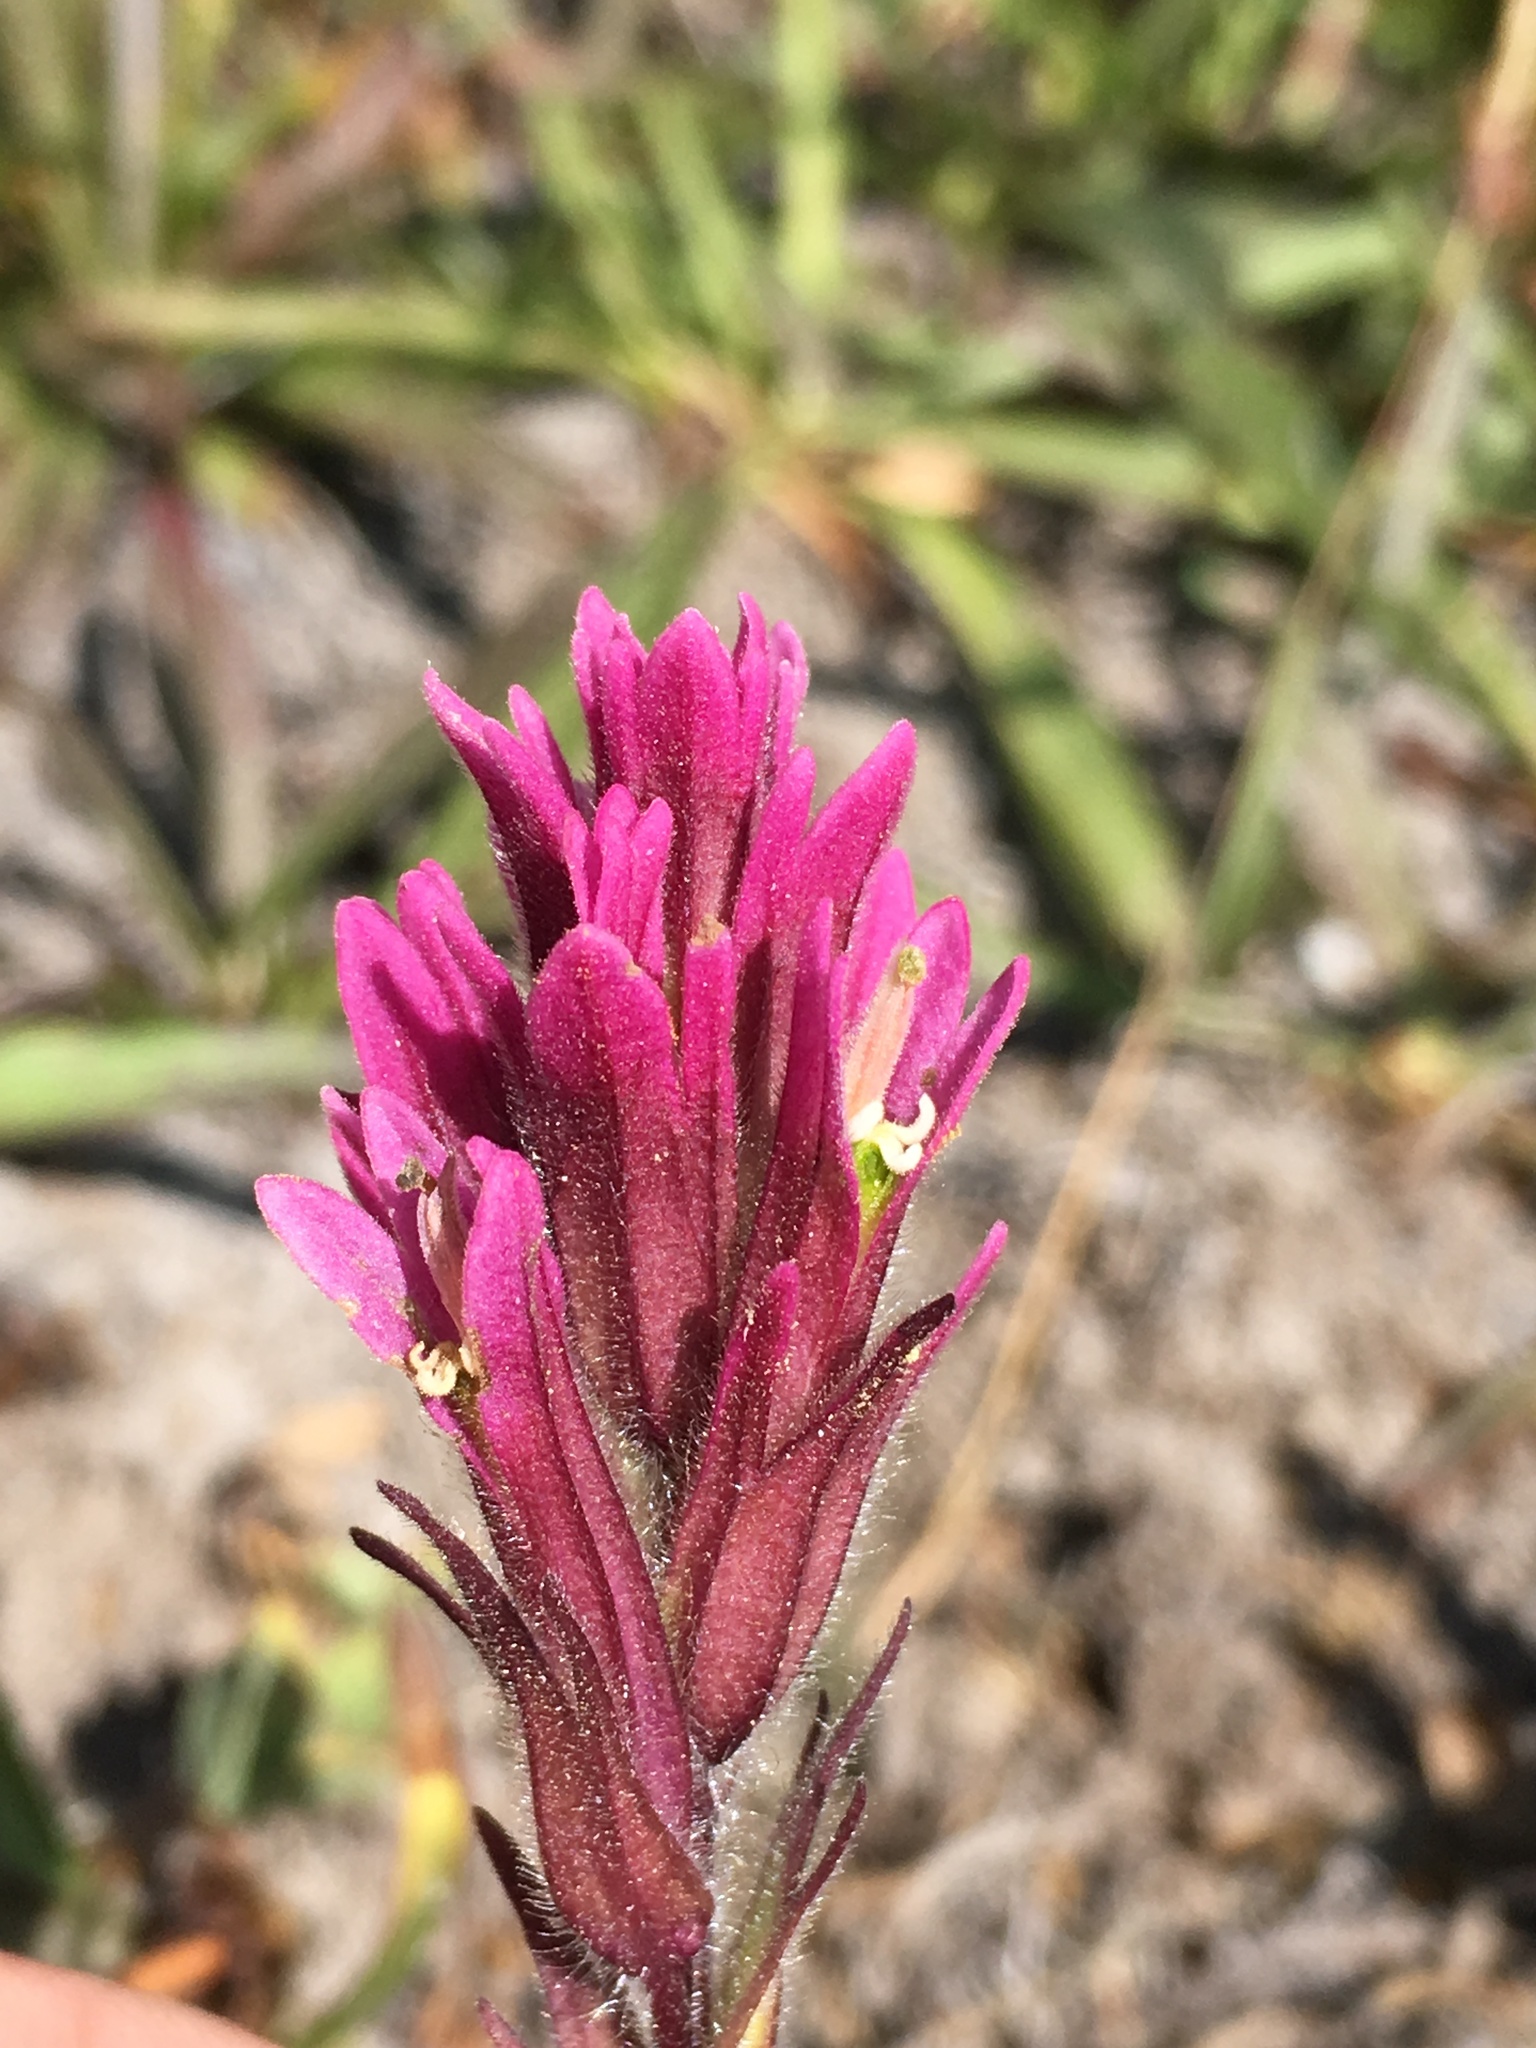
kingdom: Plantae
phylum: Tracheophyta
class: Magnoliopsida
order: Lamiales
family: Orobanchaceae
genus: Castilleja
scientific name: Castilleja lassenensis
